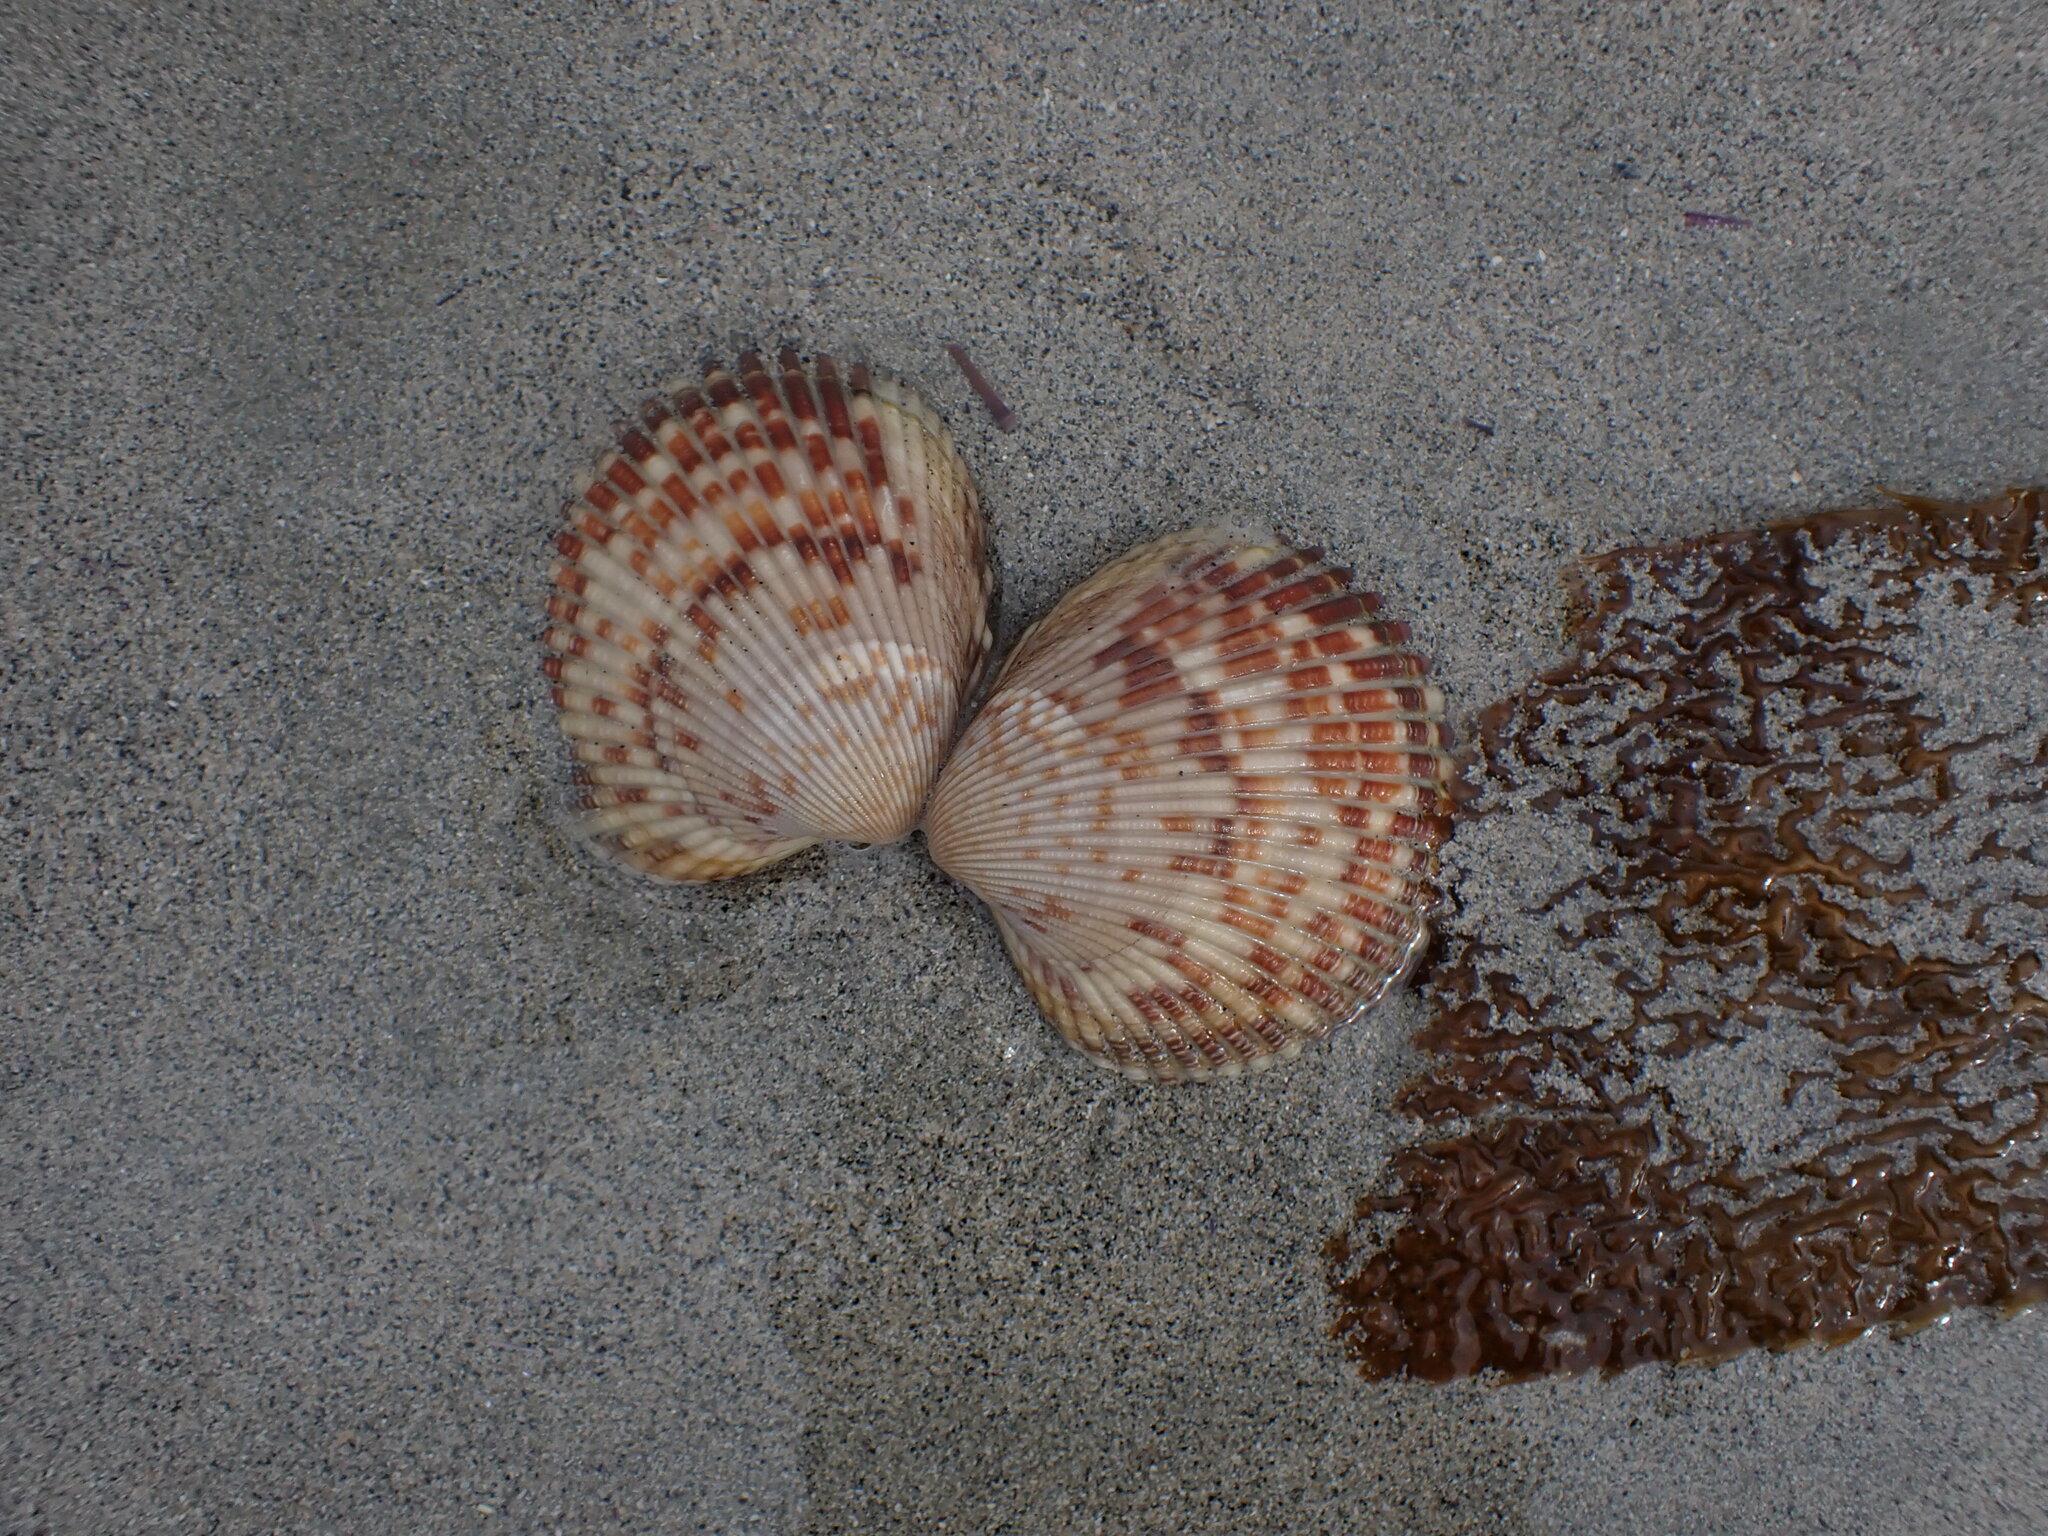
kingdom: Animalia
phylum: Mollusca
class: Bivalvia
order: Cardiida
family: Cardiidae
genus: Clinocardium
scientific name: Clinocardium nuttallii
